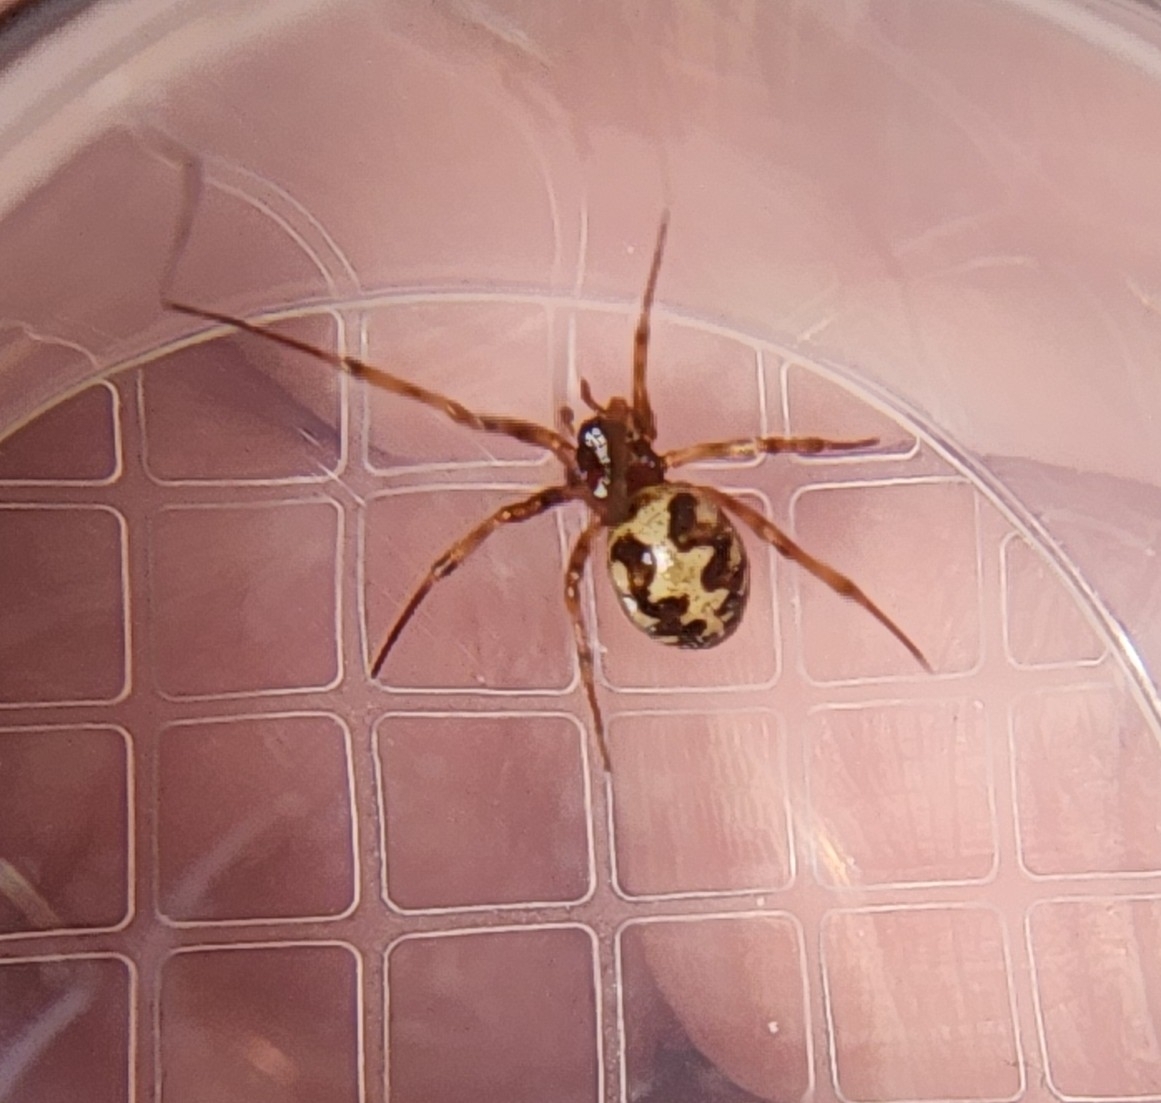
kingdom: Animalia
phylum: Arthropoda
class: Arachnida
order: Araneae
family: Theridiidae
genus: Steatoda
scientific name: Steatoda triangulosa
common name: Triangulate bud spider
